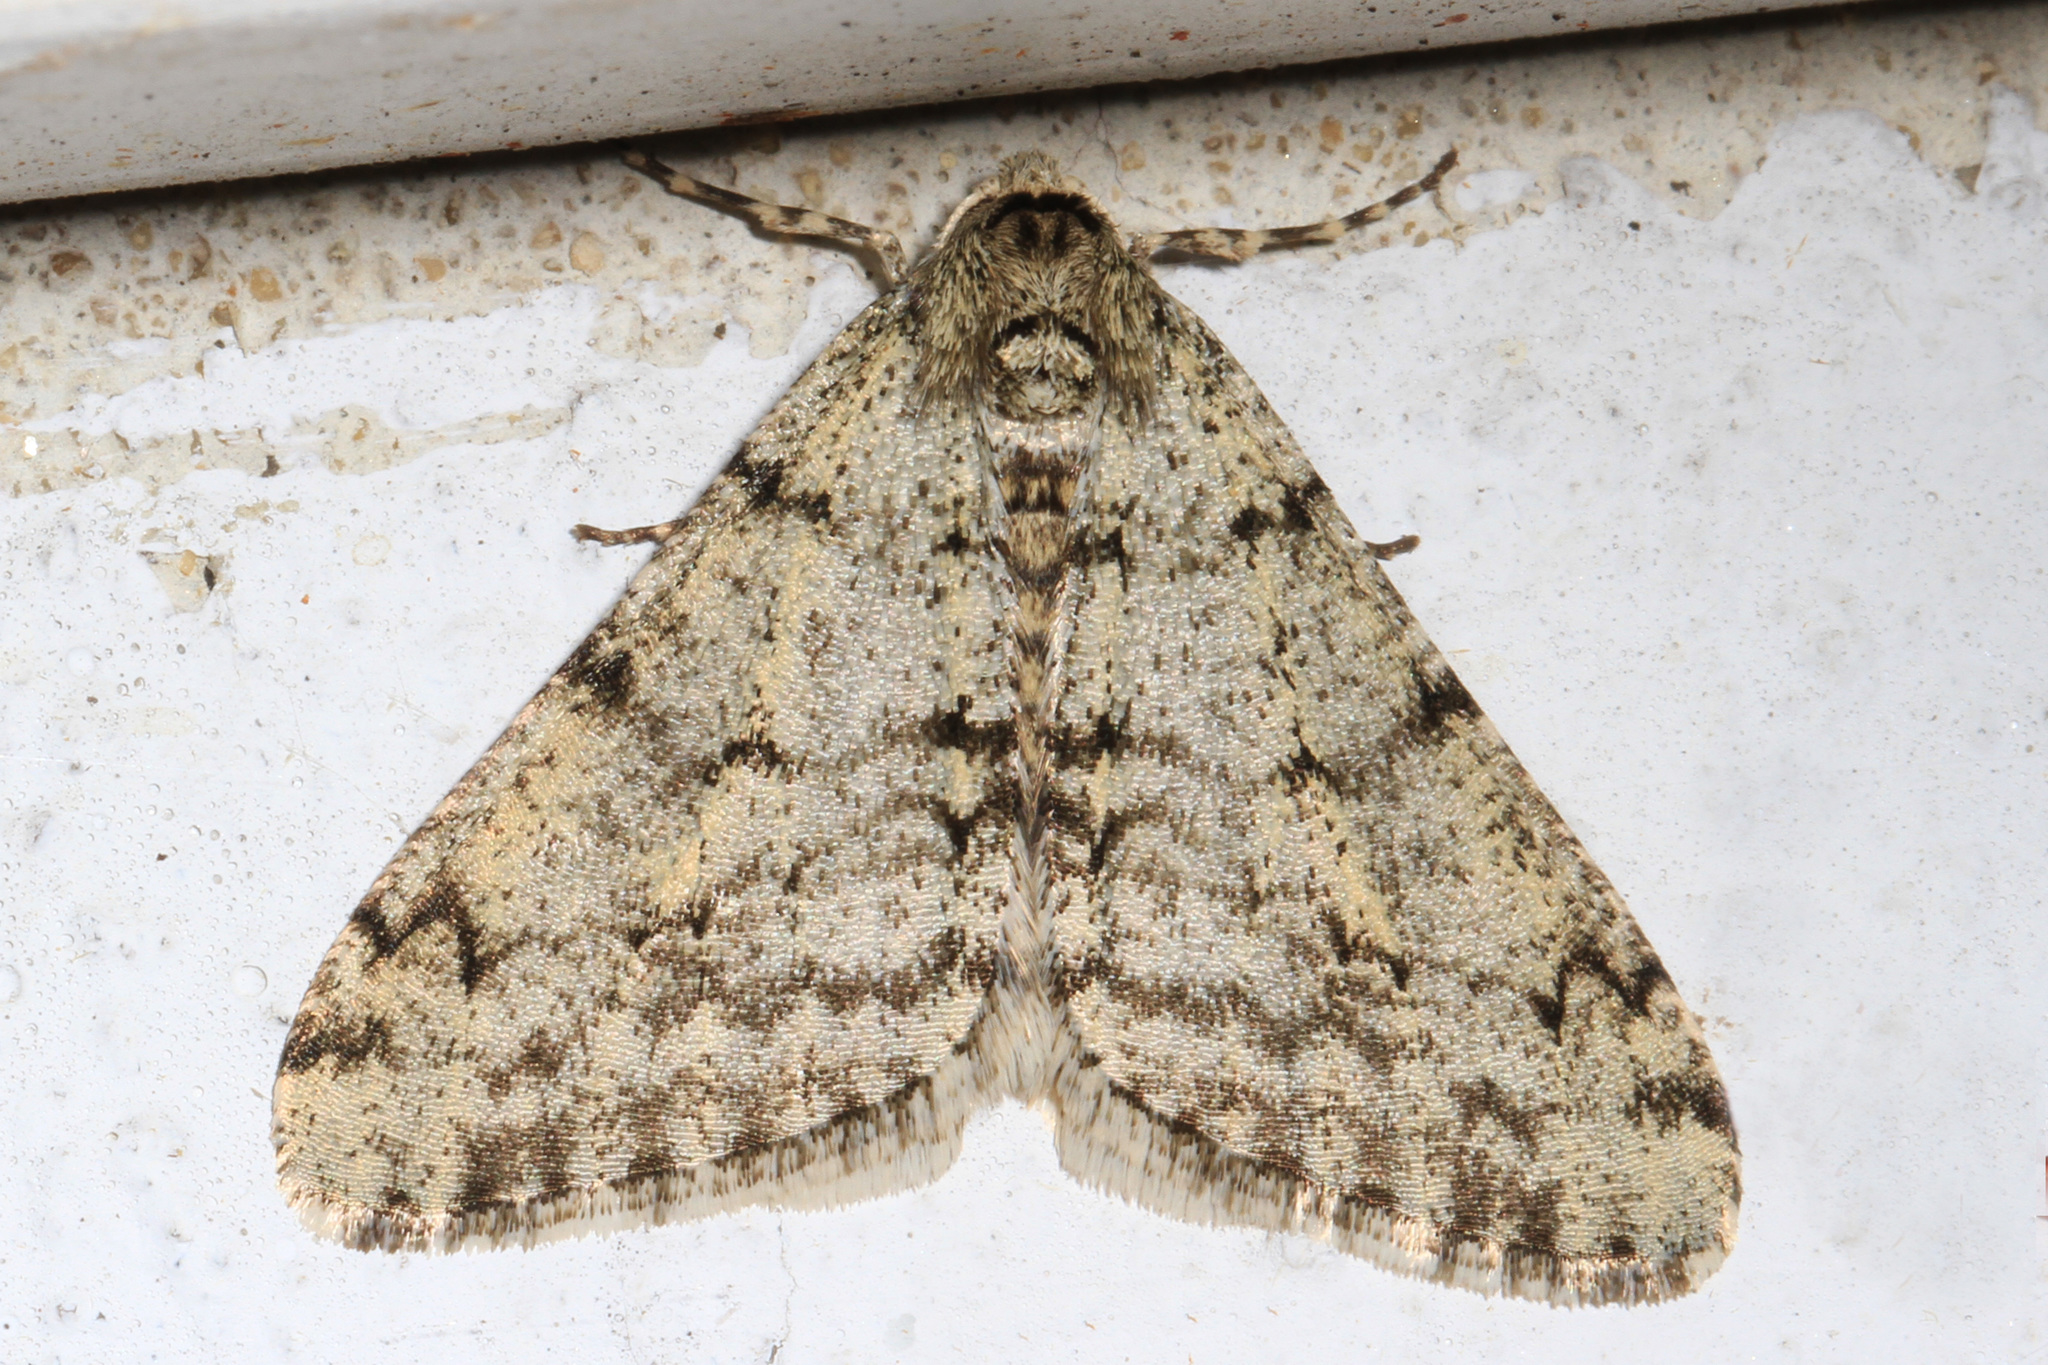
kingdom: Animalia
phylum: Arthropoda
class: Insecta
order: Lepidoptera
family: Geometridae
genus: Phigalia
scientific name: Phigalia strigataria
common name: Small phigalia
